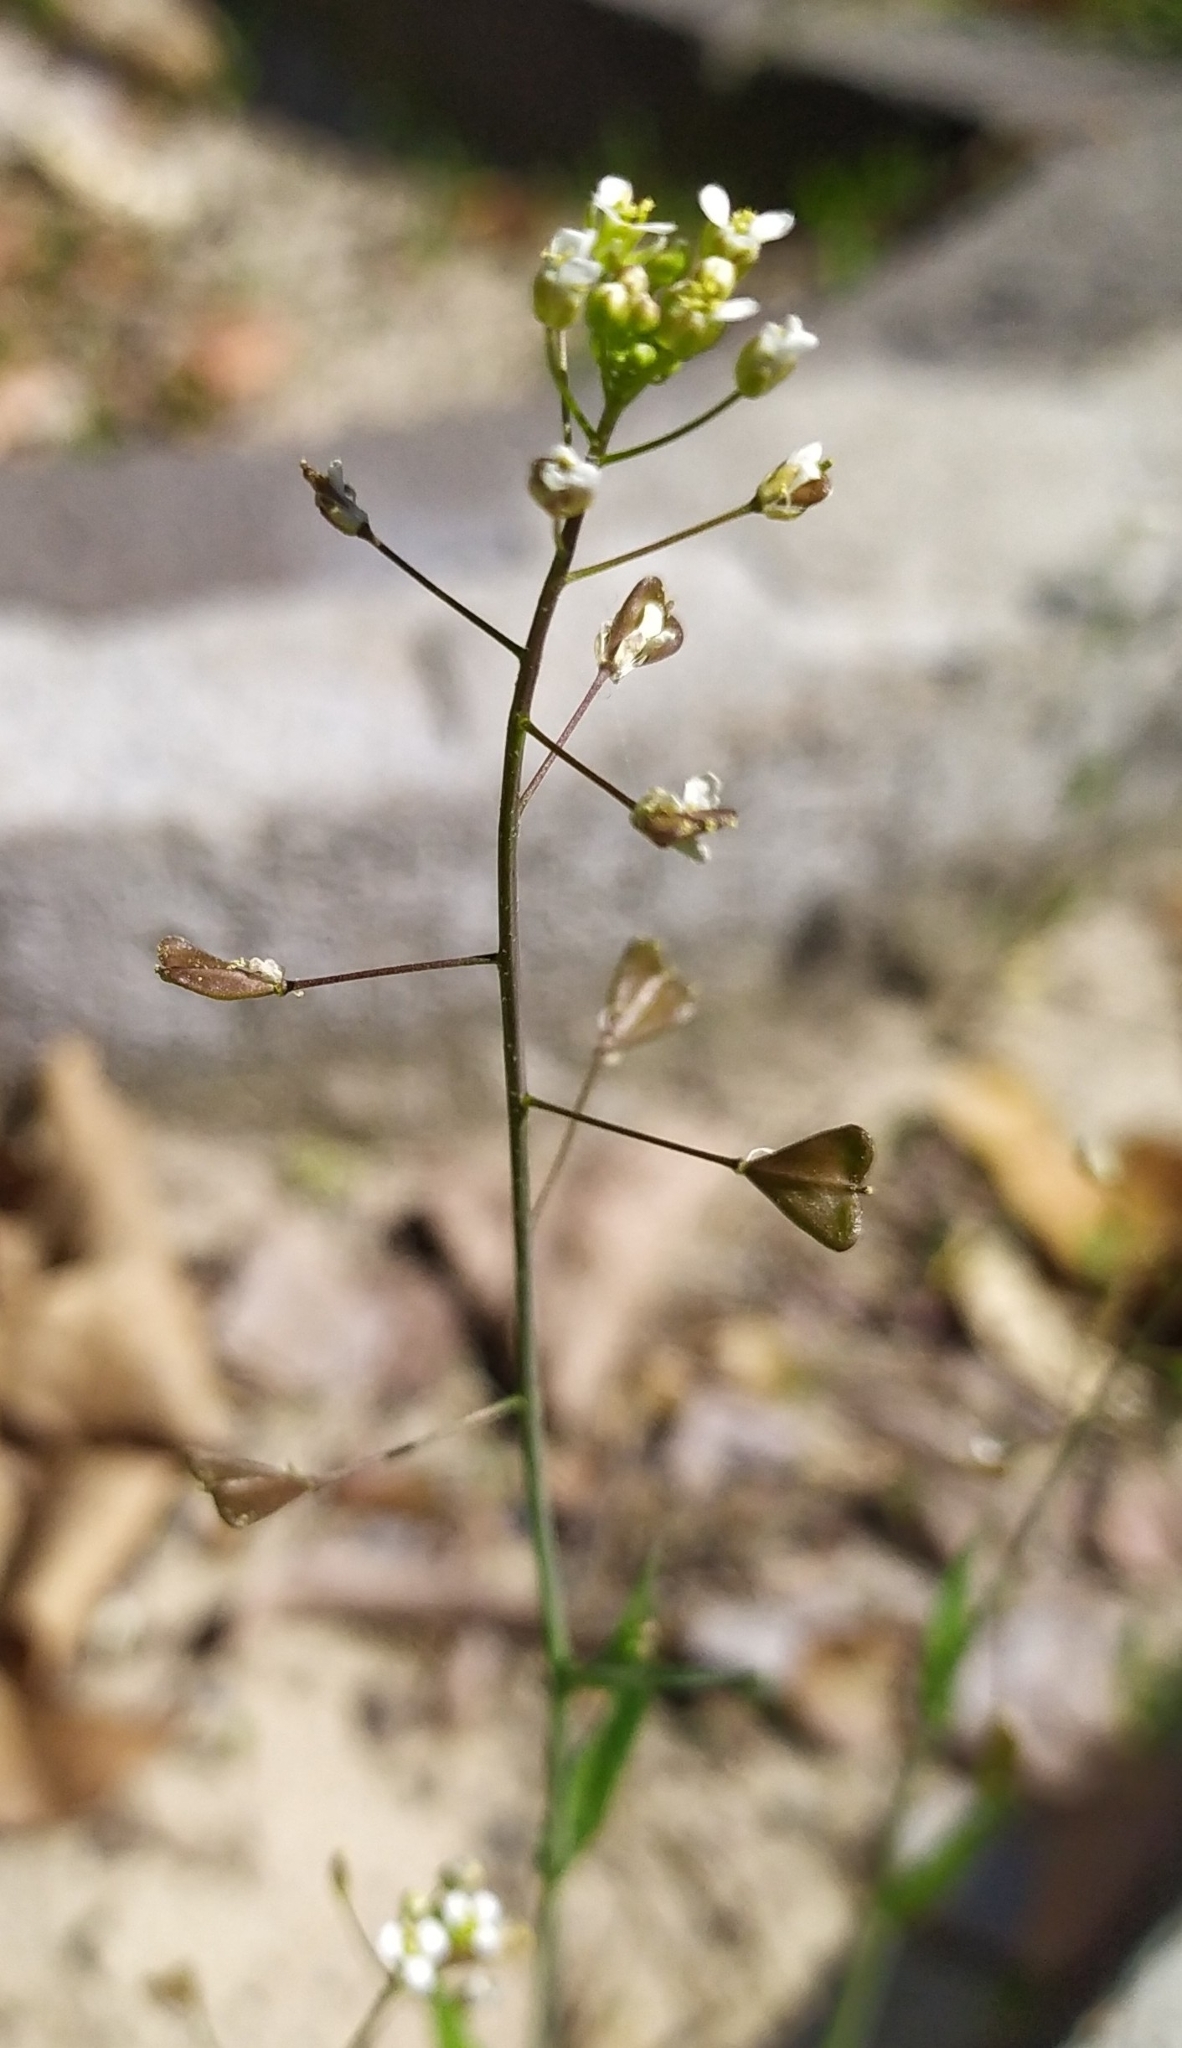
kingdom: Plantae
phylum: Tracheophyta
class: Magnoliopsida
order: Brassicales
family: Brassicaceae
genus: Capsella
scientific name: Capsella bursa-pastoris
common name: Shepherd's purse
